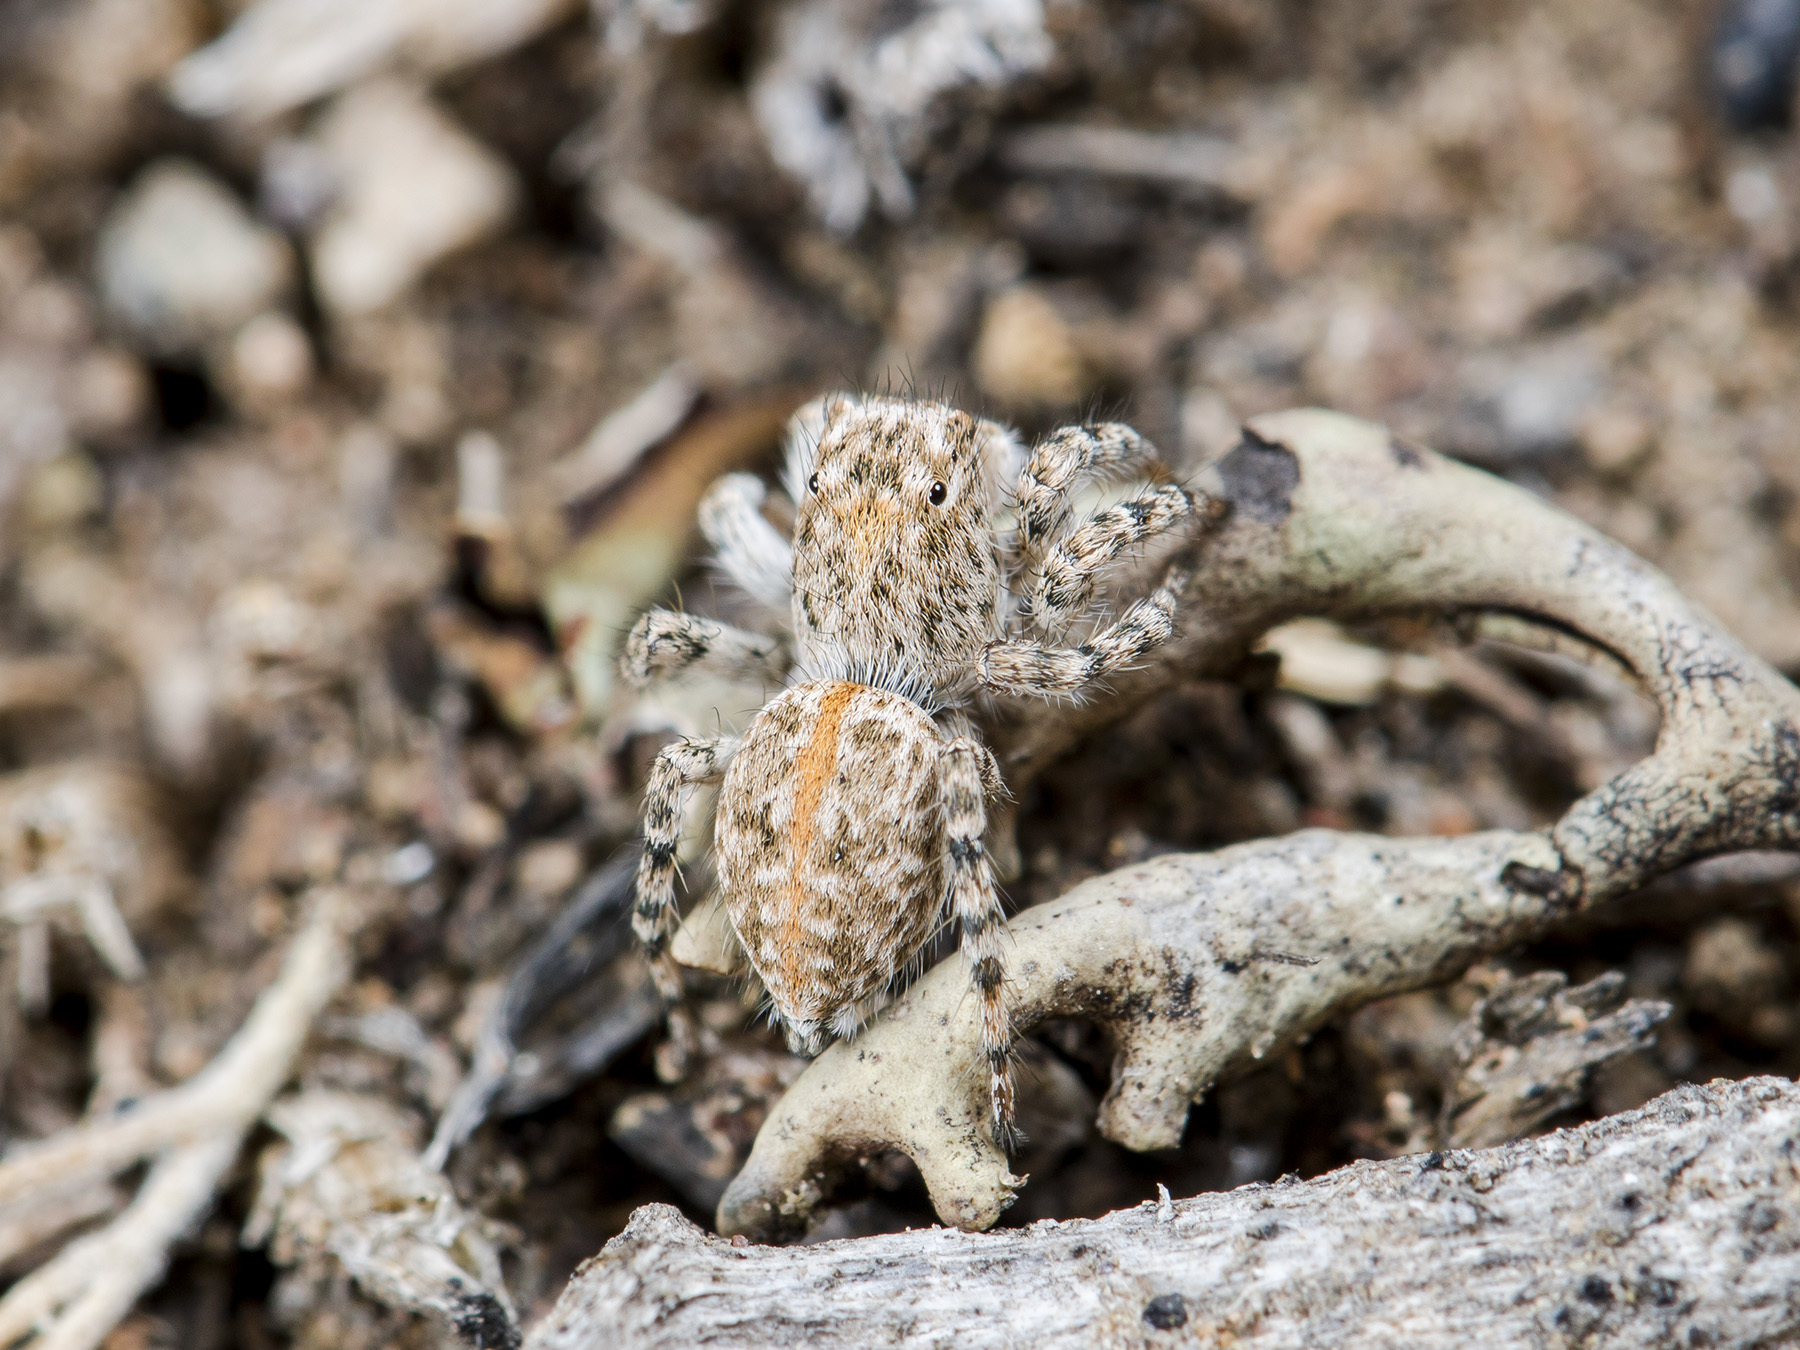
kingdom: Animalia
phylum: Arthropoda
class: Arachnida
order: Araneae
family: Salticidae
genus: Aelurillus
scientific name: Aelurillus dubatolovi
